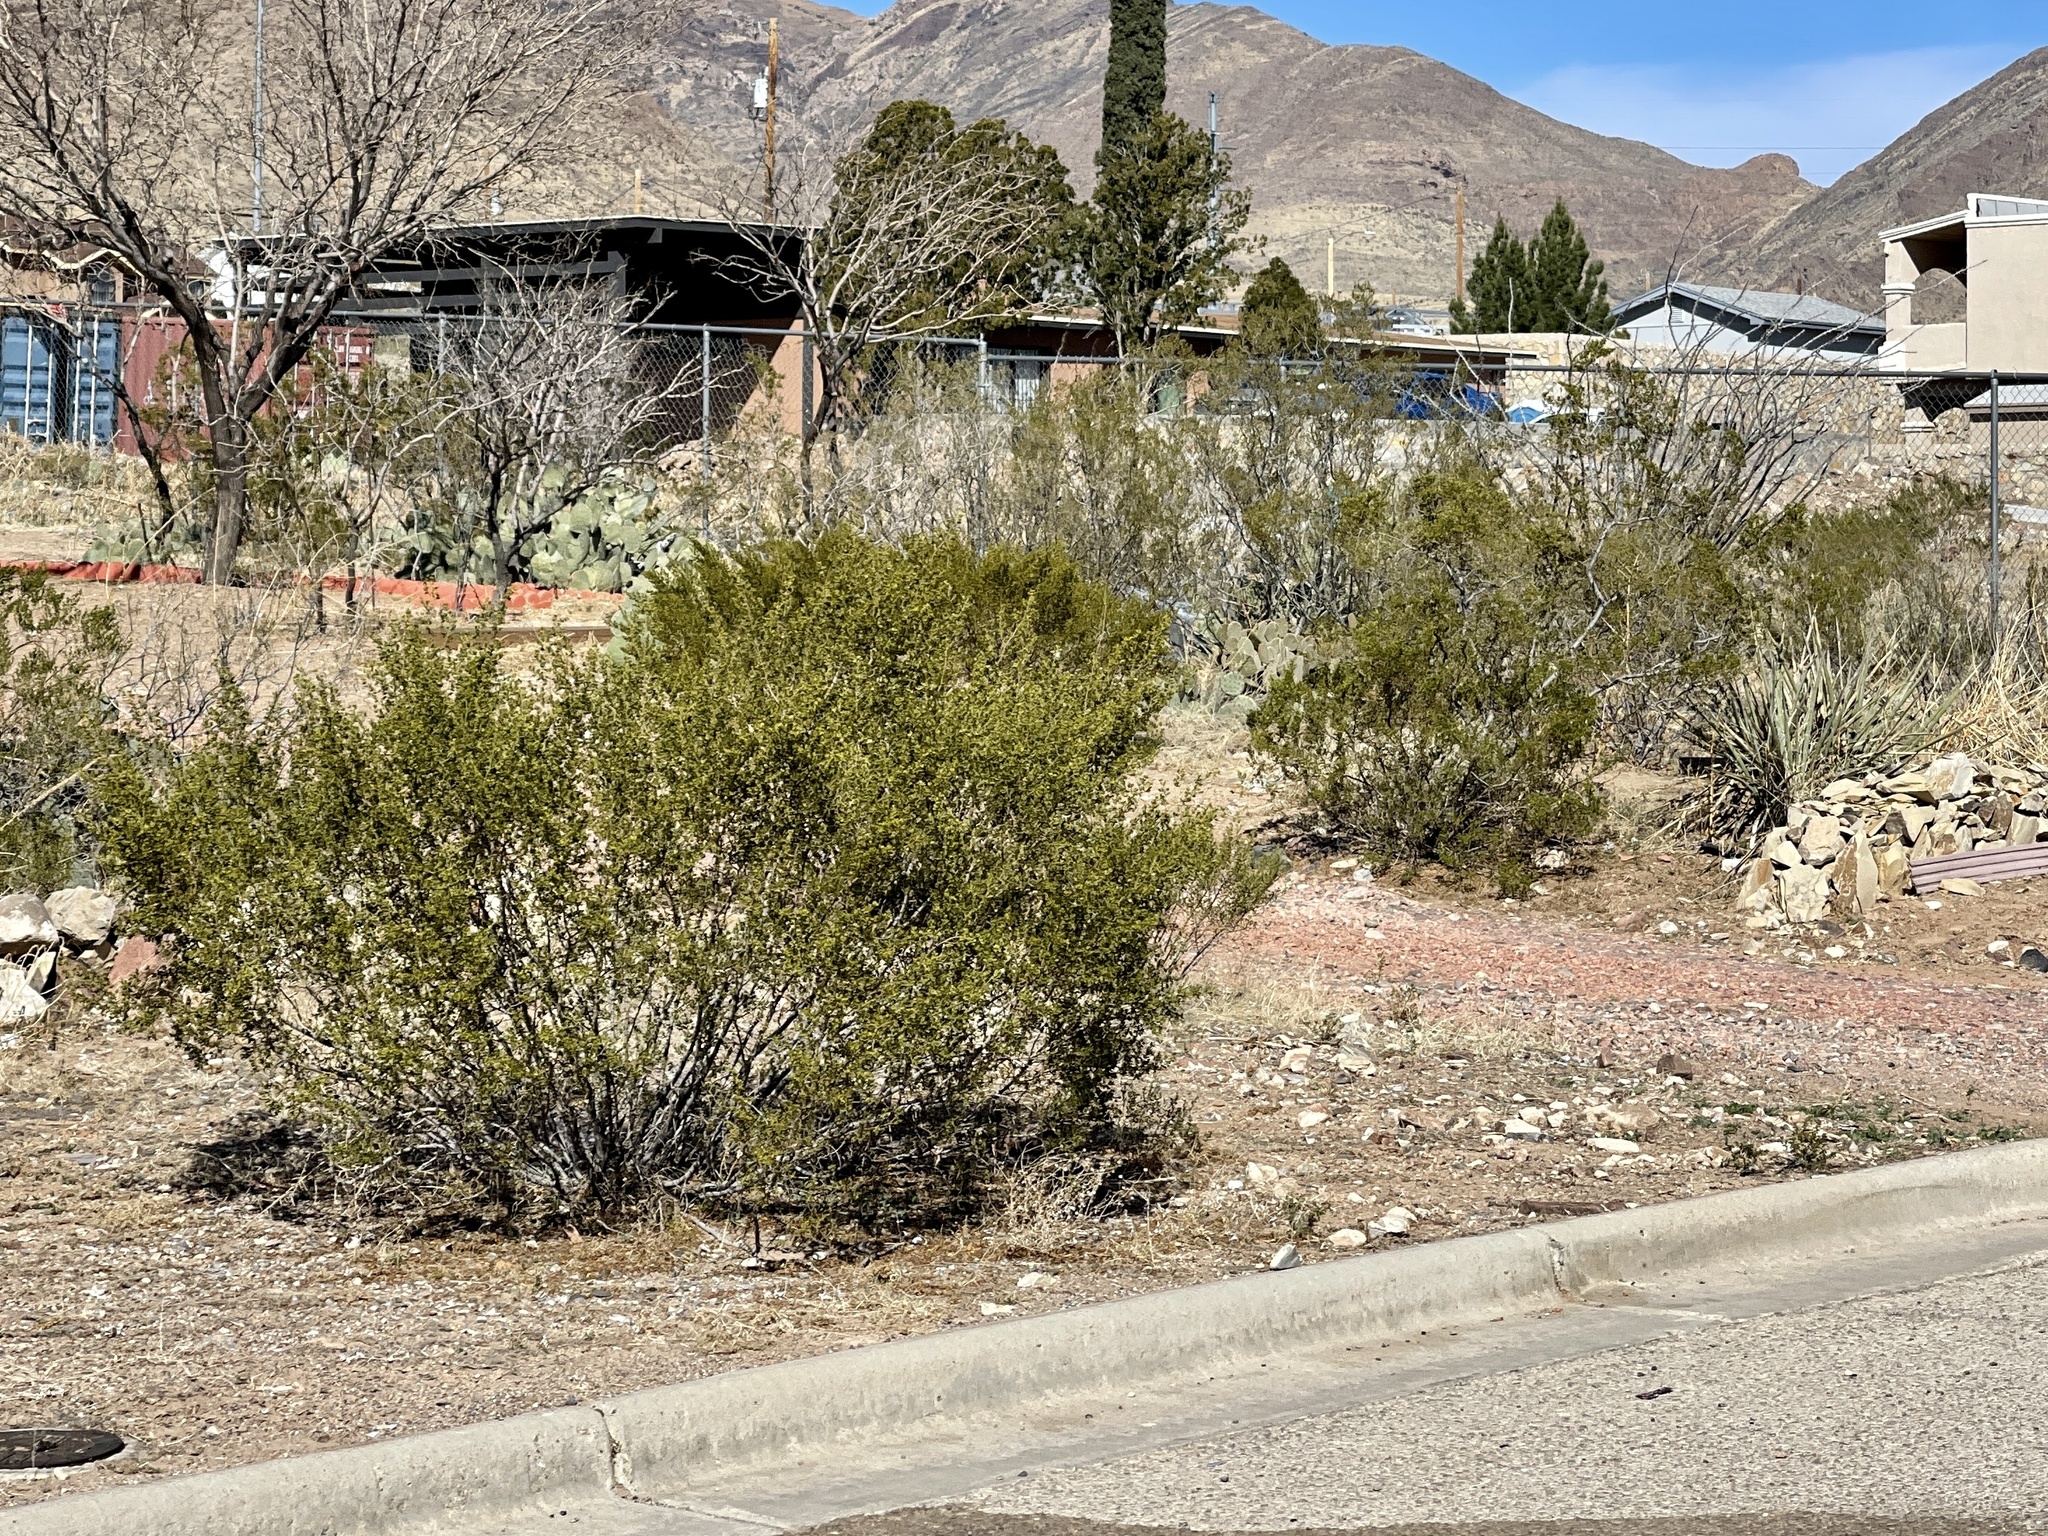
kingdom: Plantae
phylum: Tracheophyta
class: Magnoliopsida
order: Zygophyllales
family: Zygophyllaceae
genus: Larrea
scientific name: Larrea tridentata
